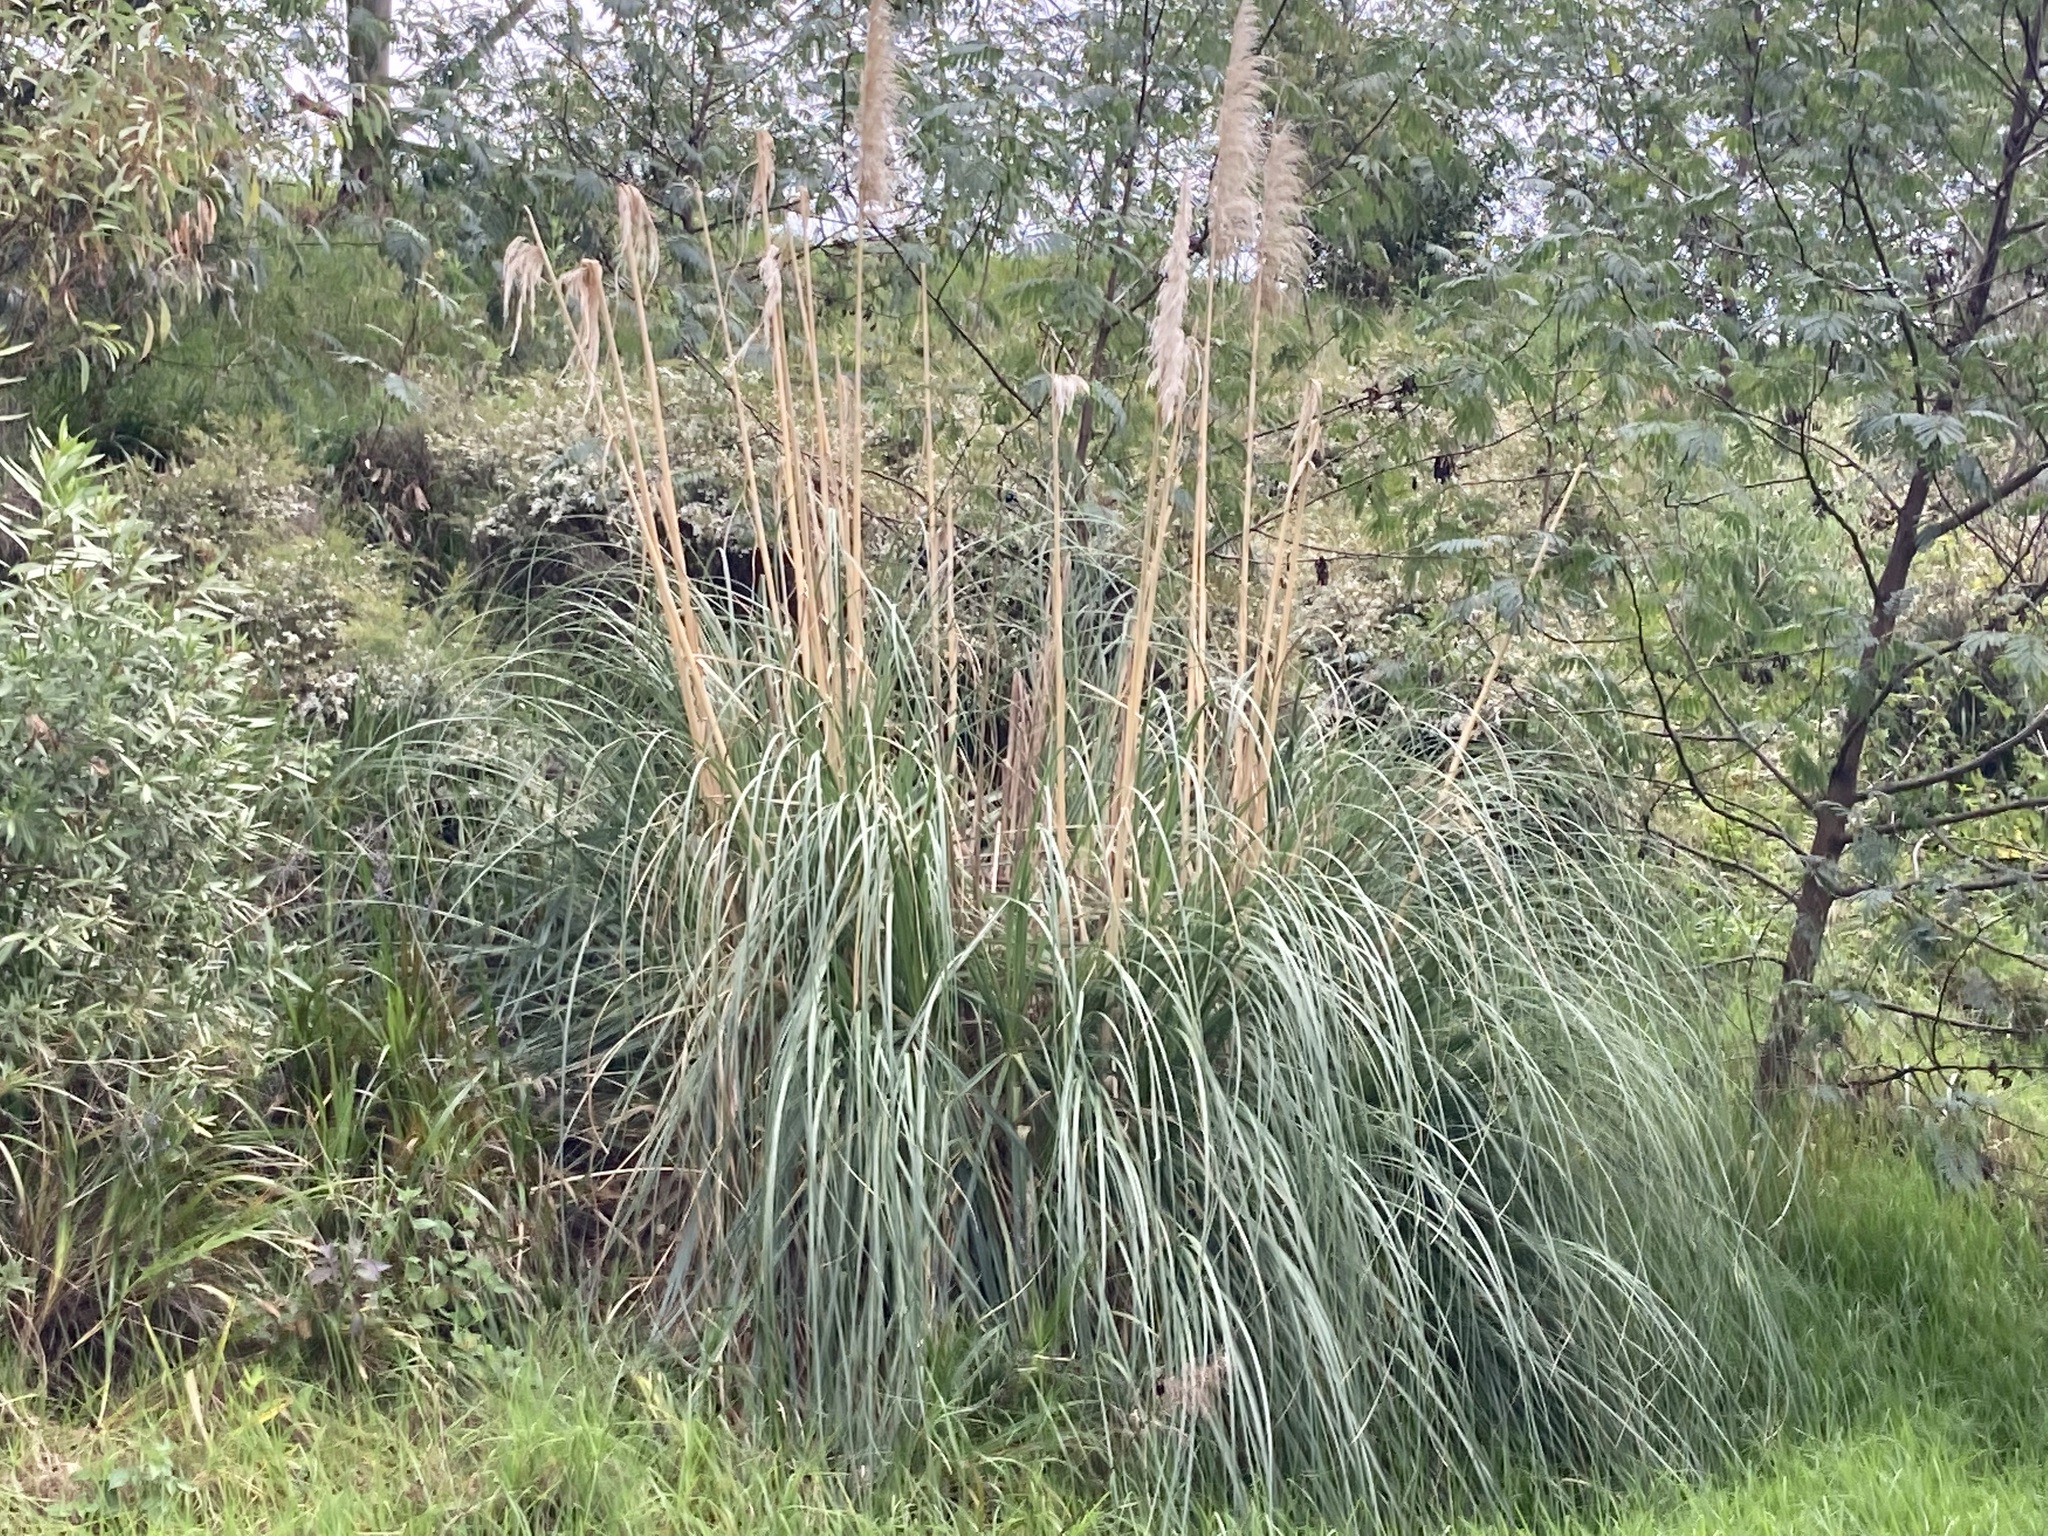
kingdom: Plantae
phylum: Tracheophyta
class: Liliopsida
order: Poales
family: Poaceae
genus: Cortaderia
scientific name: Cortaderia selloana
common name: Uruguayan pampas grass
